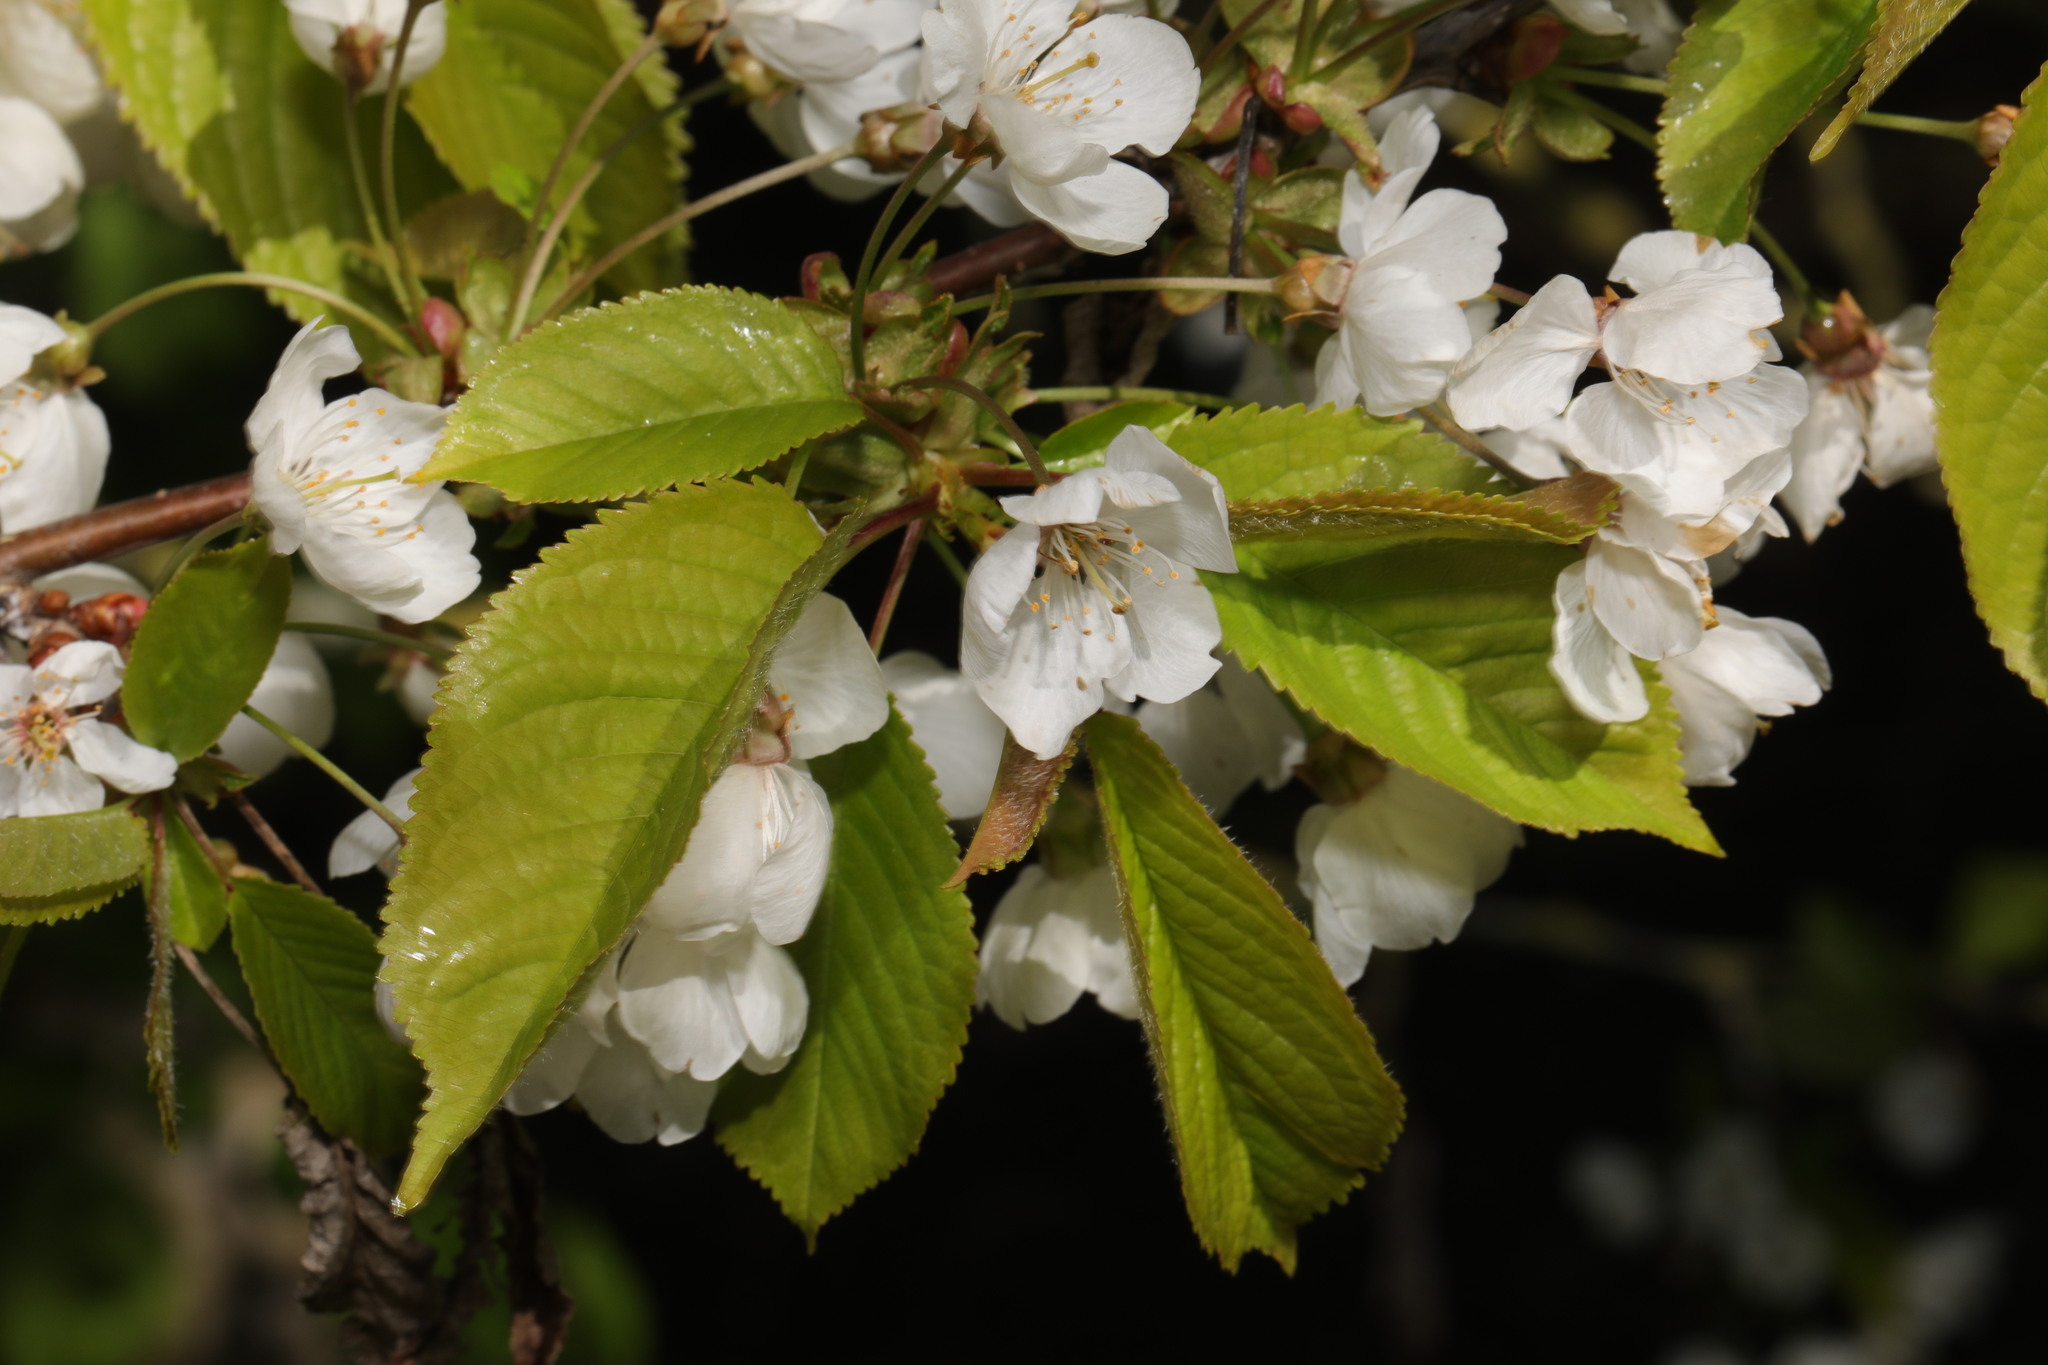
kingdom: Plantae
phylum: Tracheophyta
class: Magnoliopsida
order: Rosales
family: Rosaceae
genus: Prunus
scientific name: Prunus avium
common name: Sweet cherry
